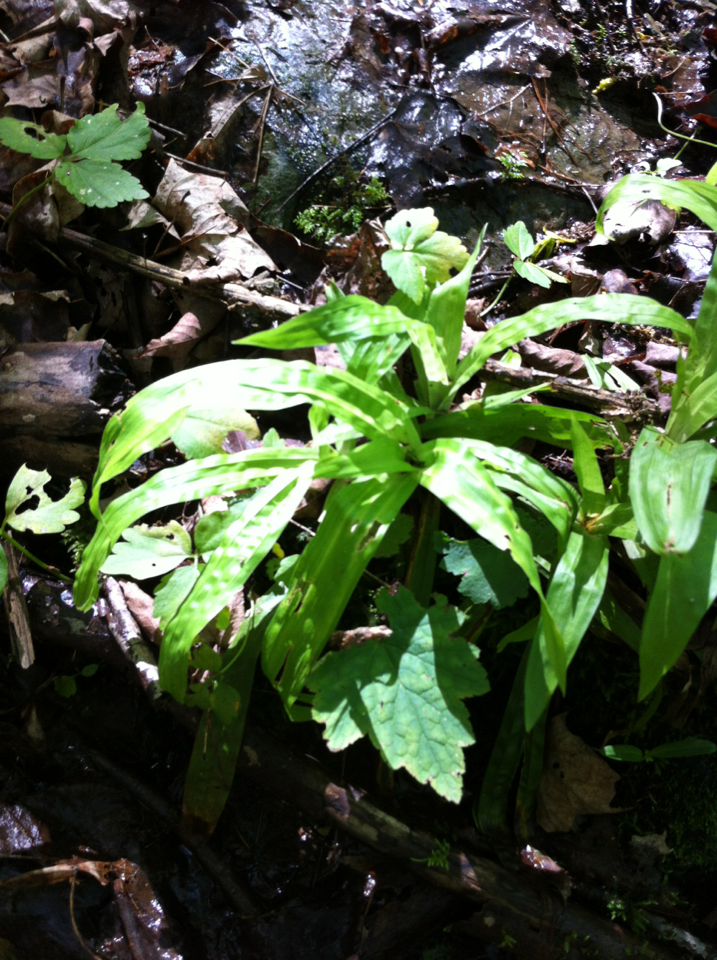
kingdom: Plantae
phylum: Tracheophyta
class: Liliopsida
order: Poales
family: Cyperaceae
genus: Carex
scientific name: Carex plantaginea
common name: Plantain-leaved sedge
